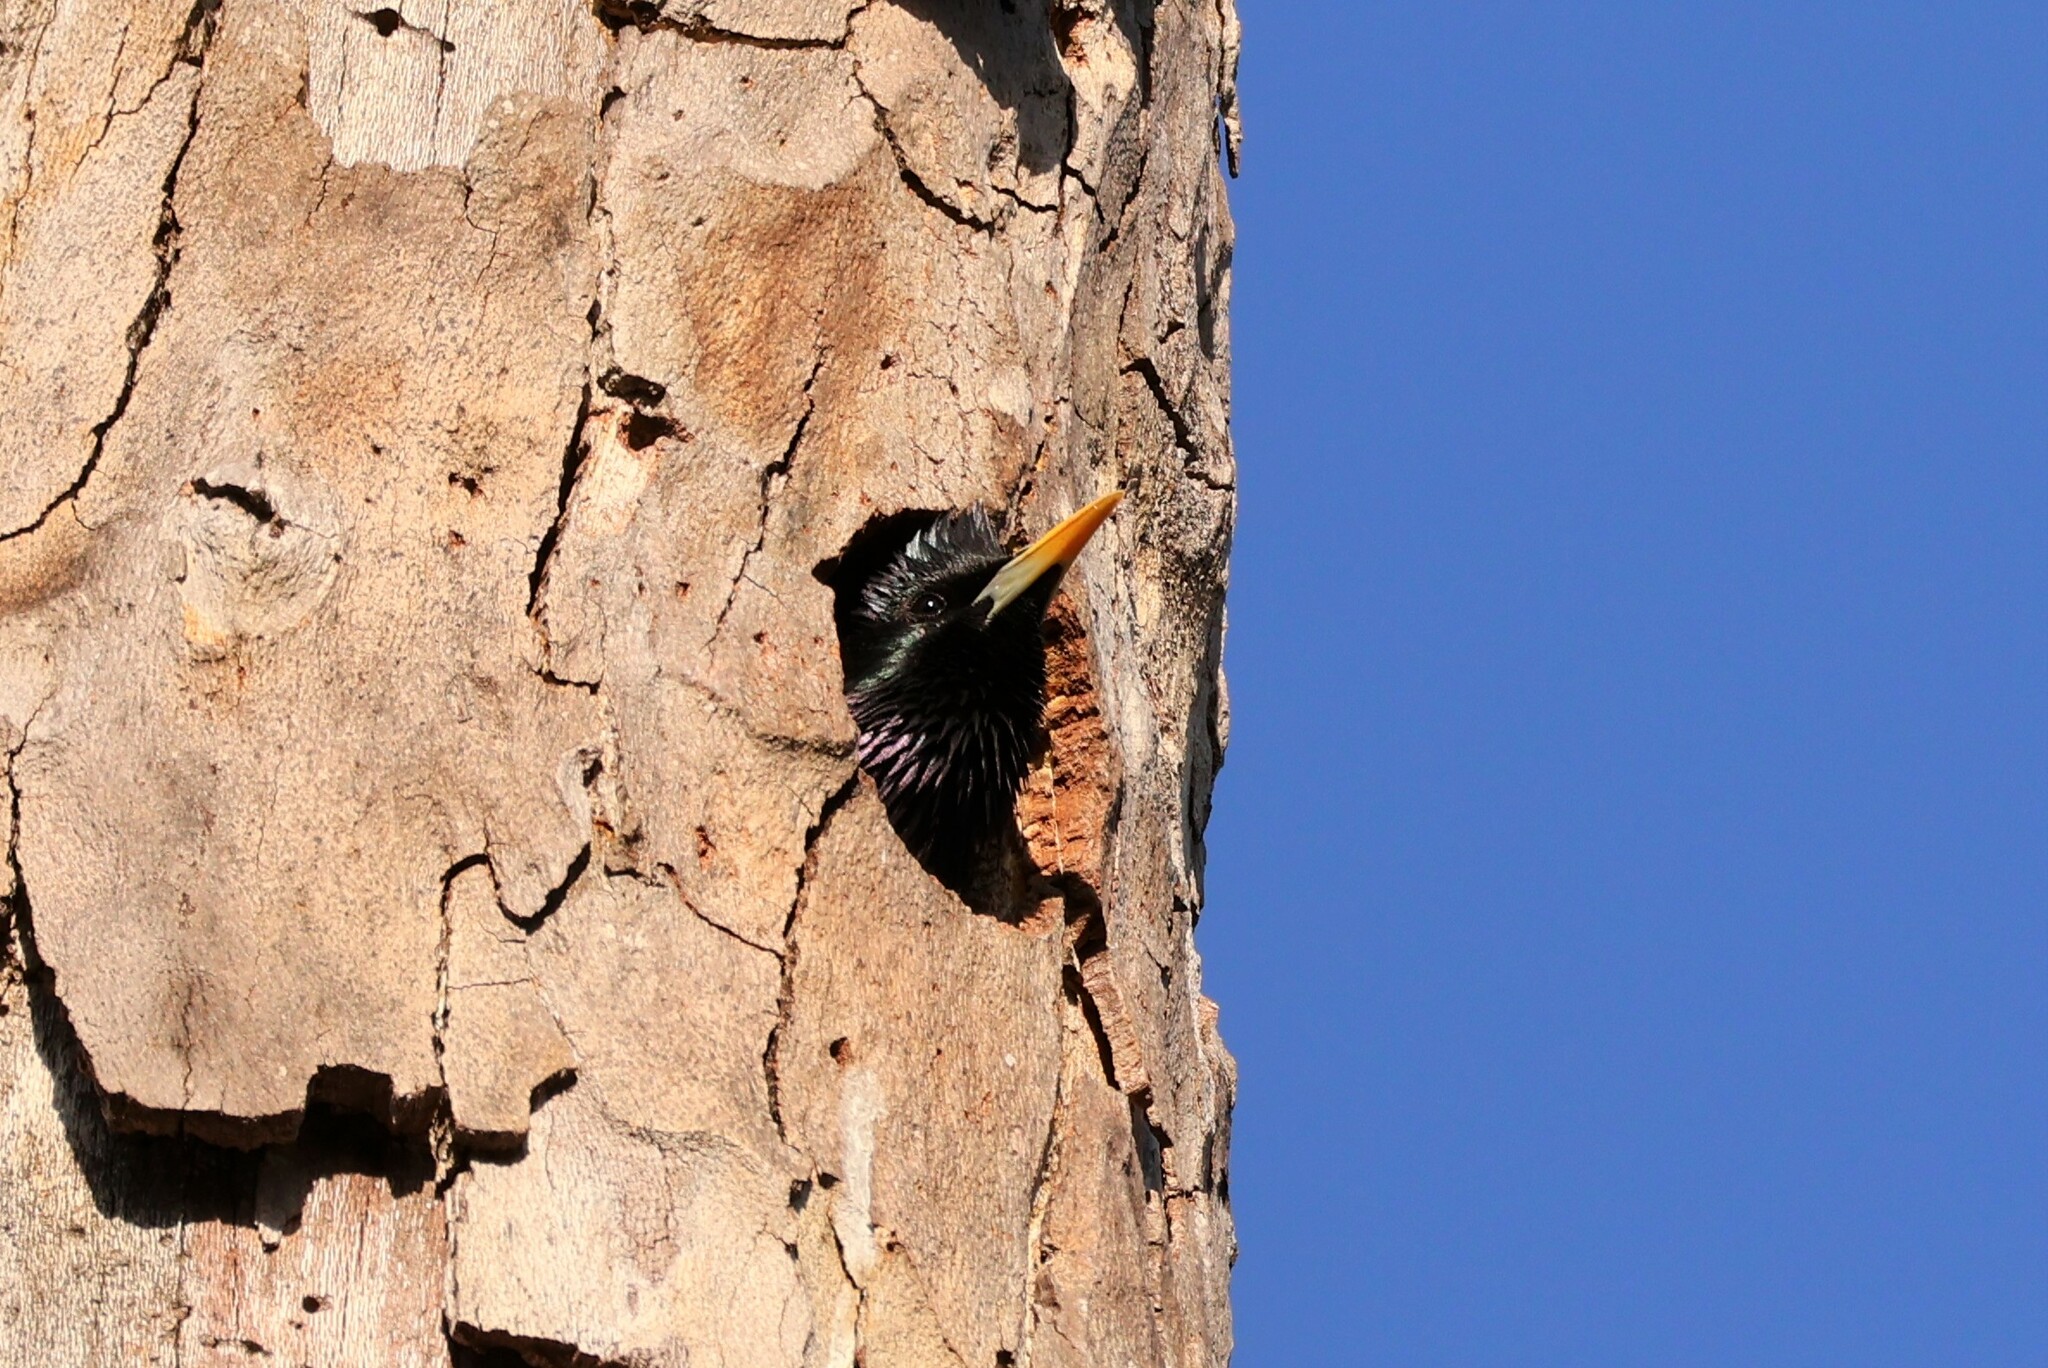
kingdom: Animalia
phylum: Chordata
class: Aves
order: Passeriformes
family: Sturnidae
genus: Sturnus
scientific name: Sturnus vulgaris
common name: Common starling
